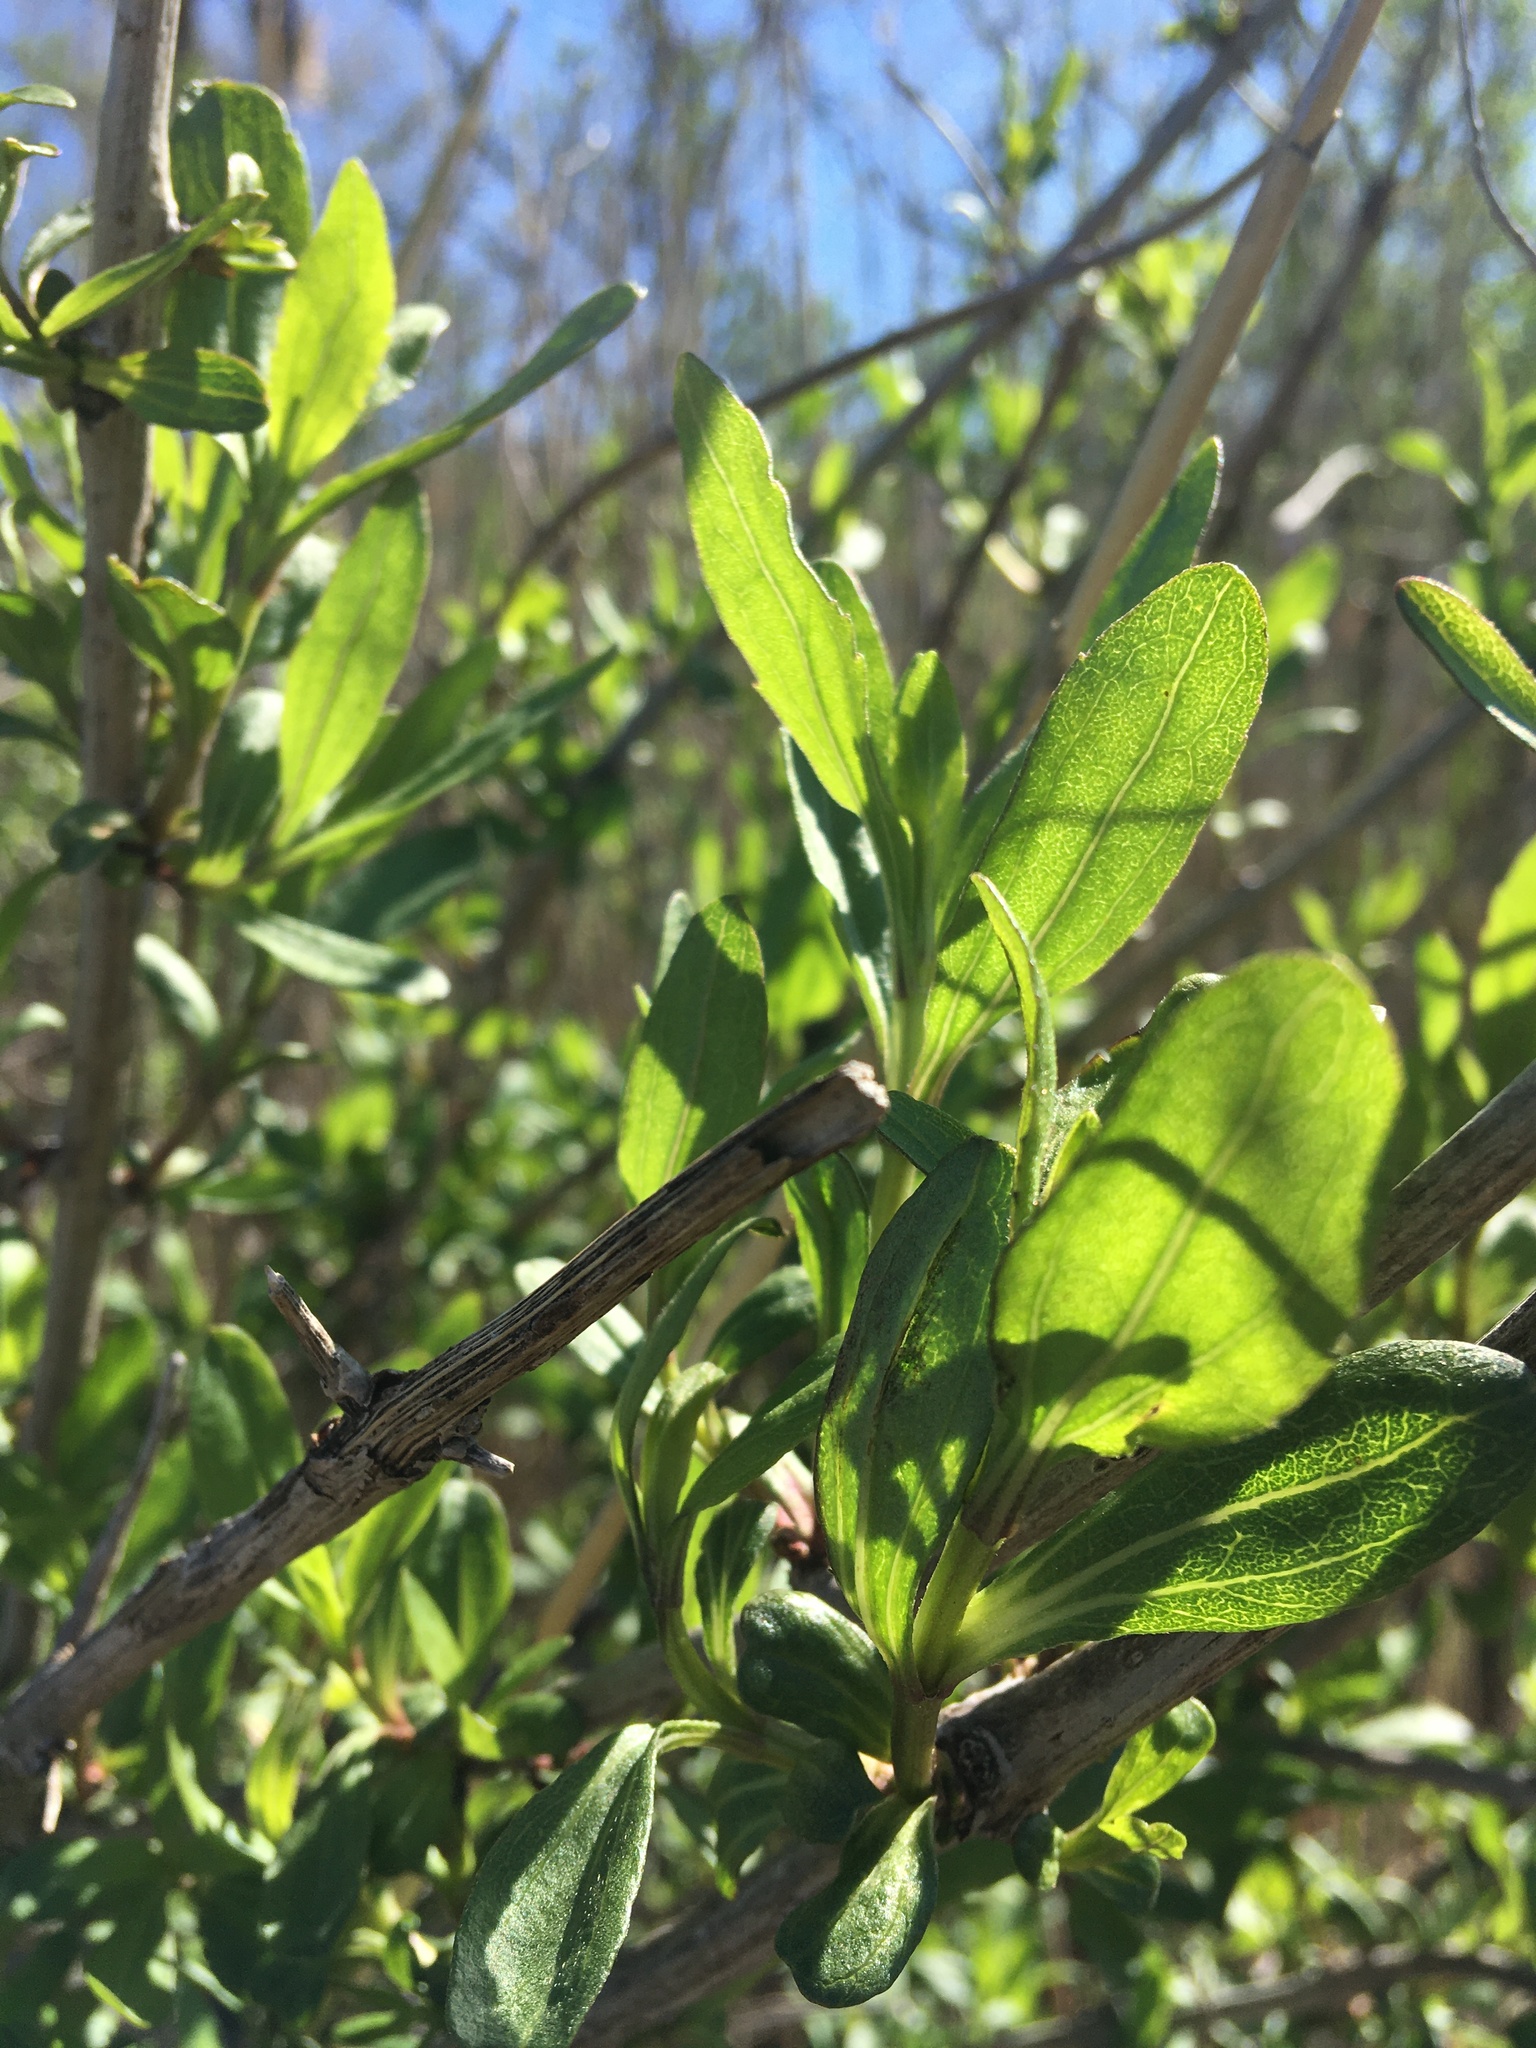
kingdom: Plantae
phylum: Tracheophyta
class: Magnoliopsida
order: Asterales
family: Asteraceae
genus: Iva
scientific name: Iva frutescens
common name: Big-leaved marsh-elder
